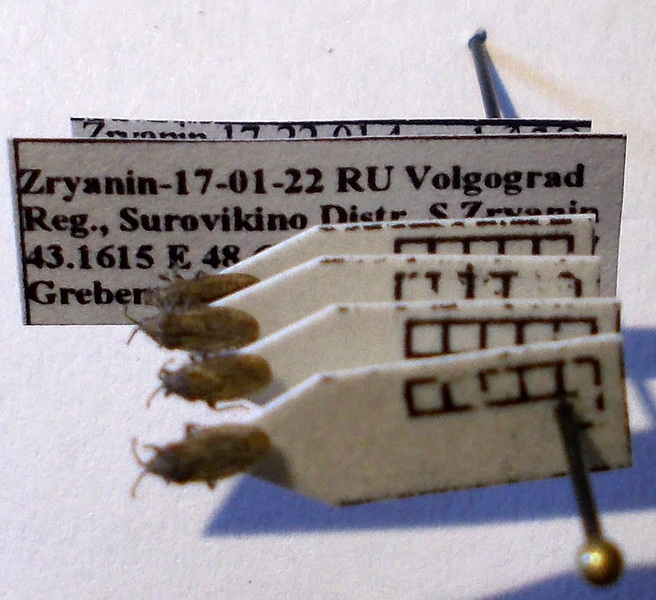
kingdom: Animalia
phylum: Arthropoda
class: Insecta
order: Hemiptera
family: Tingidae
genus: Tingis
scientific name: Tingis pauperata
